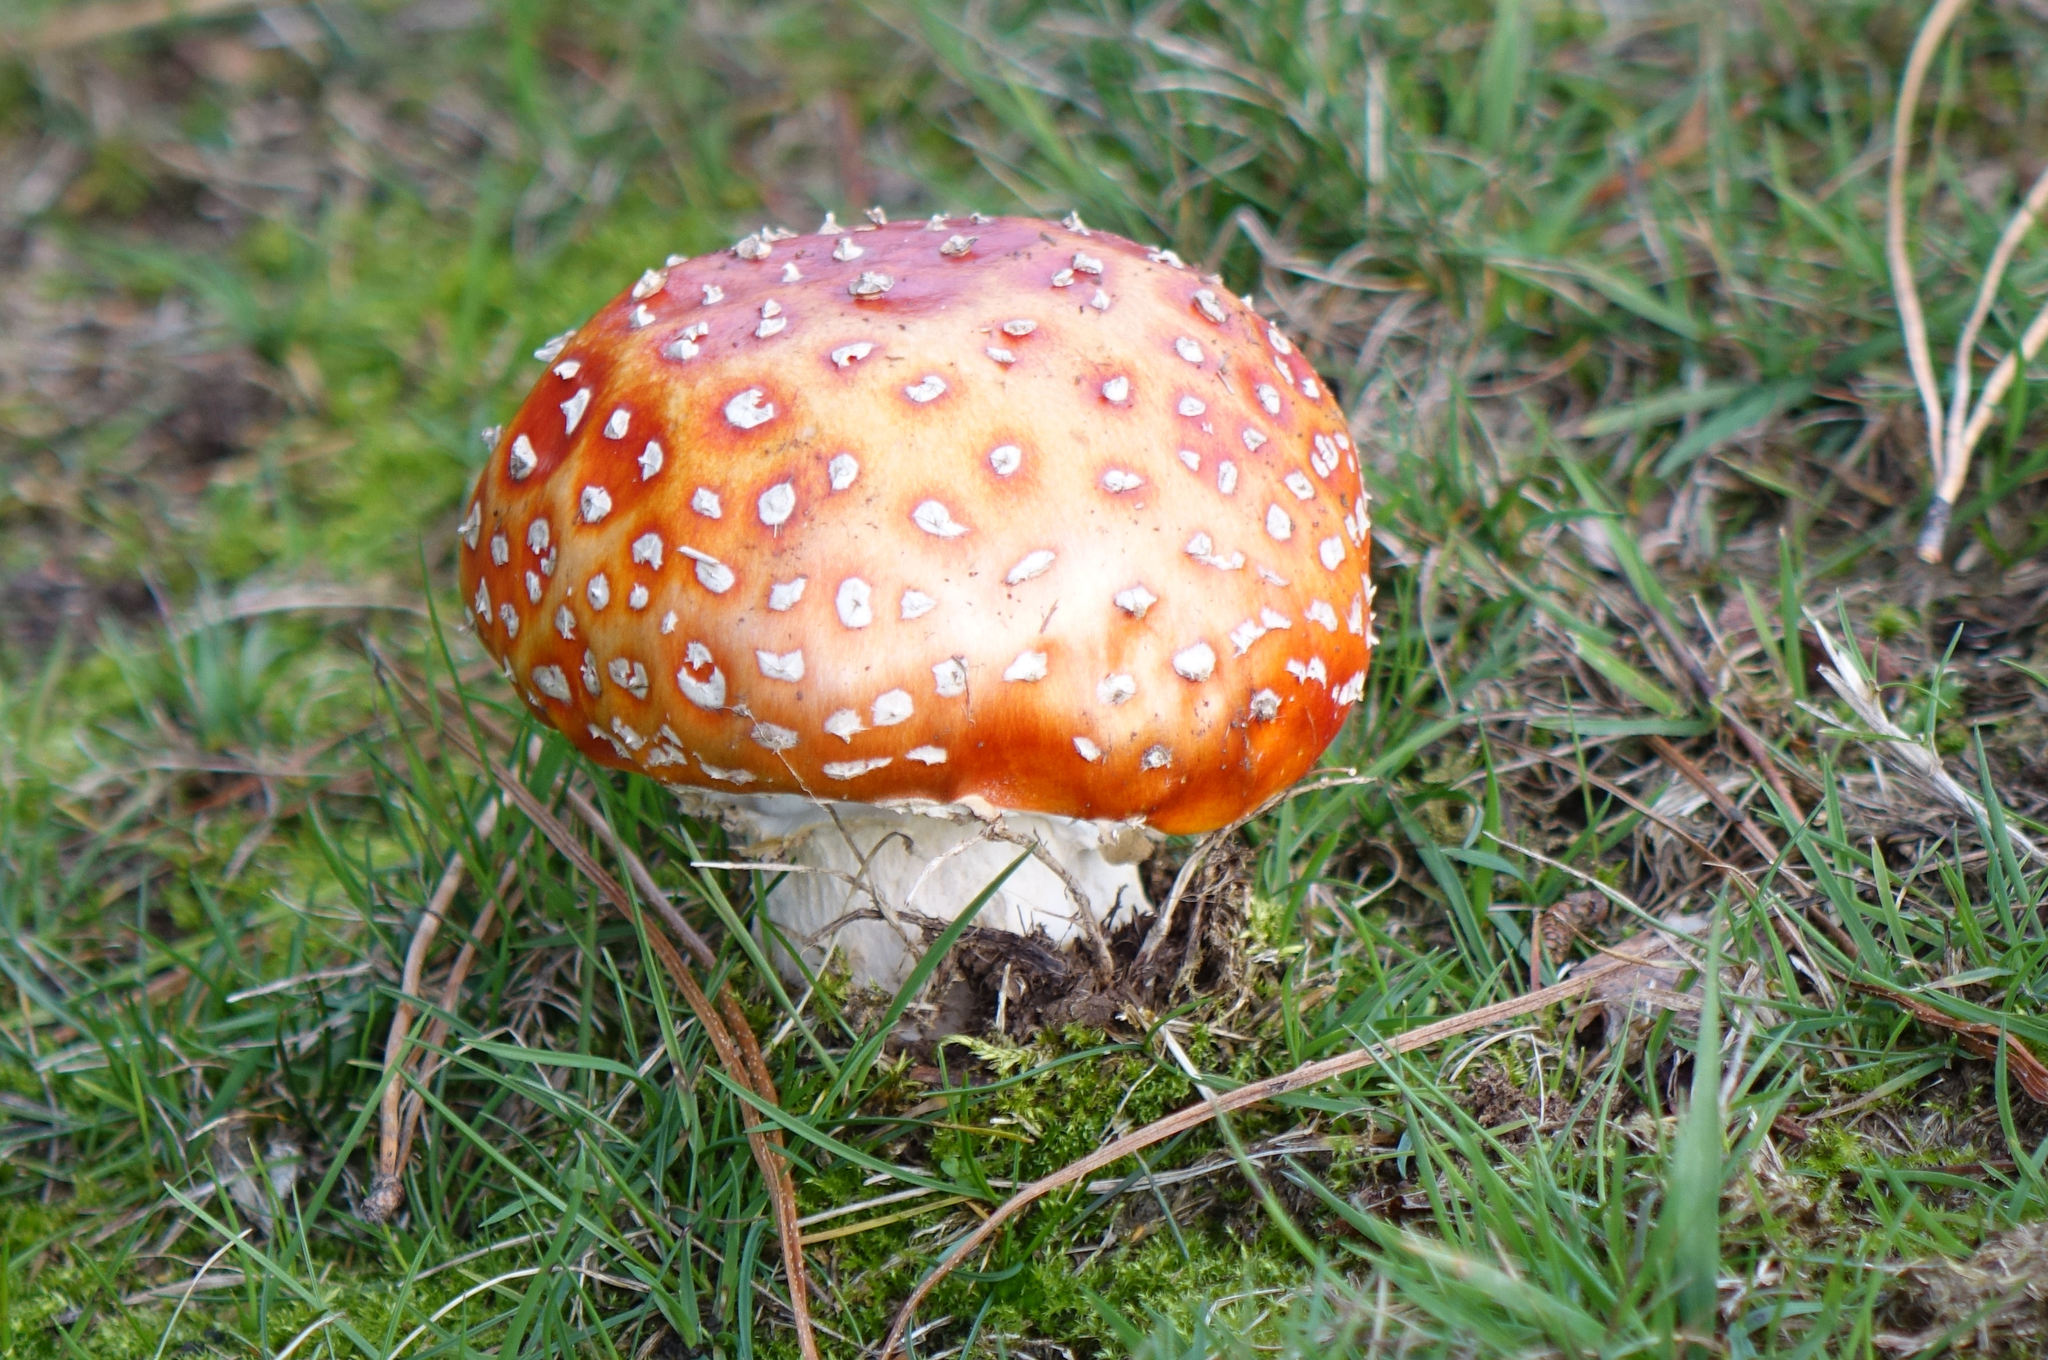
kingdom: Fungi
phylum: Basidiomycota
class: Agaricomycetes
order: Agaricales
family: Amanitaceae
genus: Amanita
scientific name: Amanita muscaria
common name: Fly agaric
